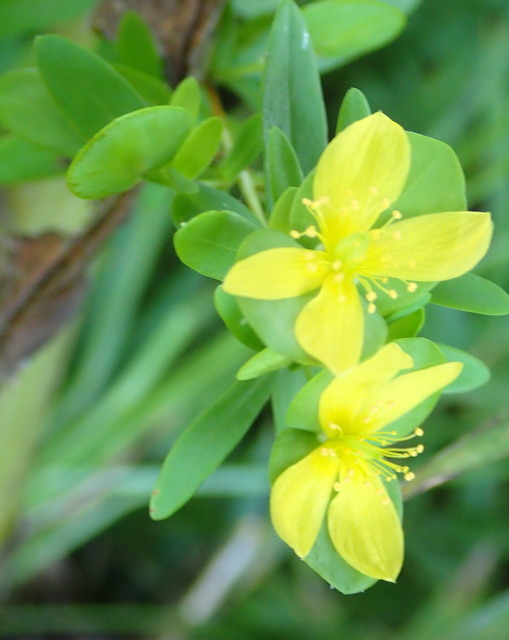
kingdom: Plantae
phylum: Tracheophyta
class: Magnoliopsida
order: Malpighiales
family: Hypericaceae
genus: Hypericum
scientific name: Hypericum hypericoides
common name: St. andrew's cross
